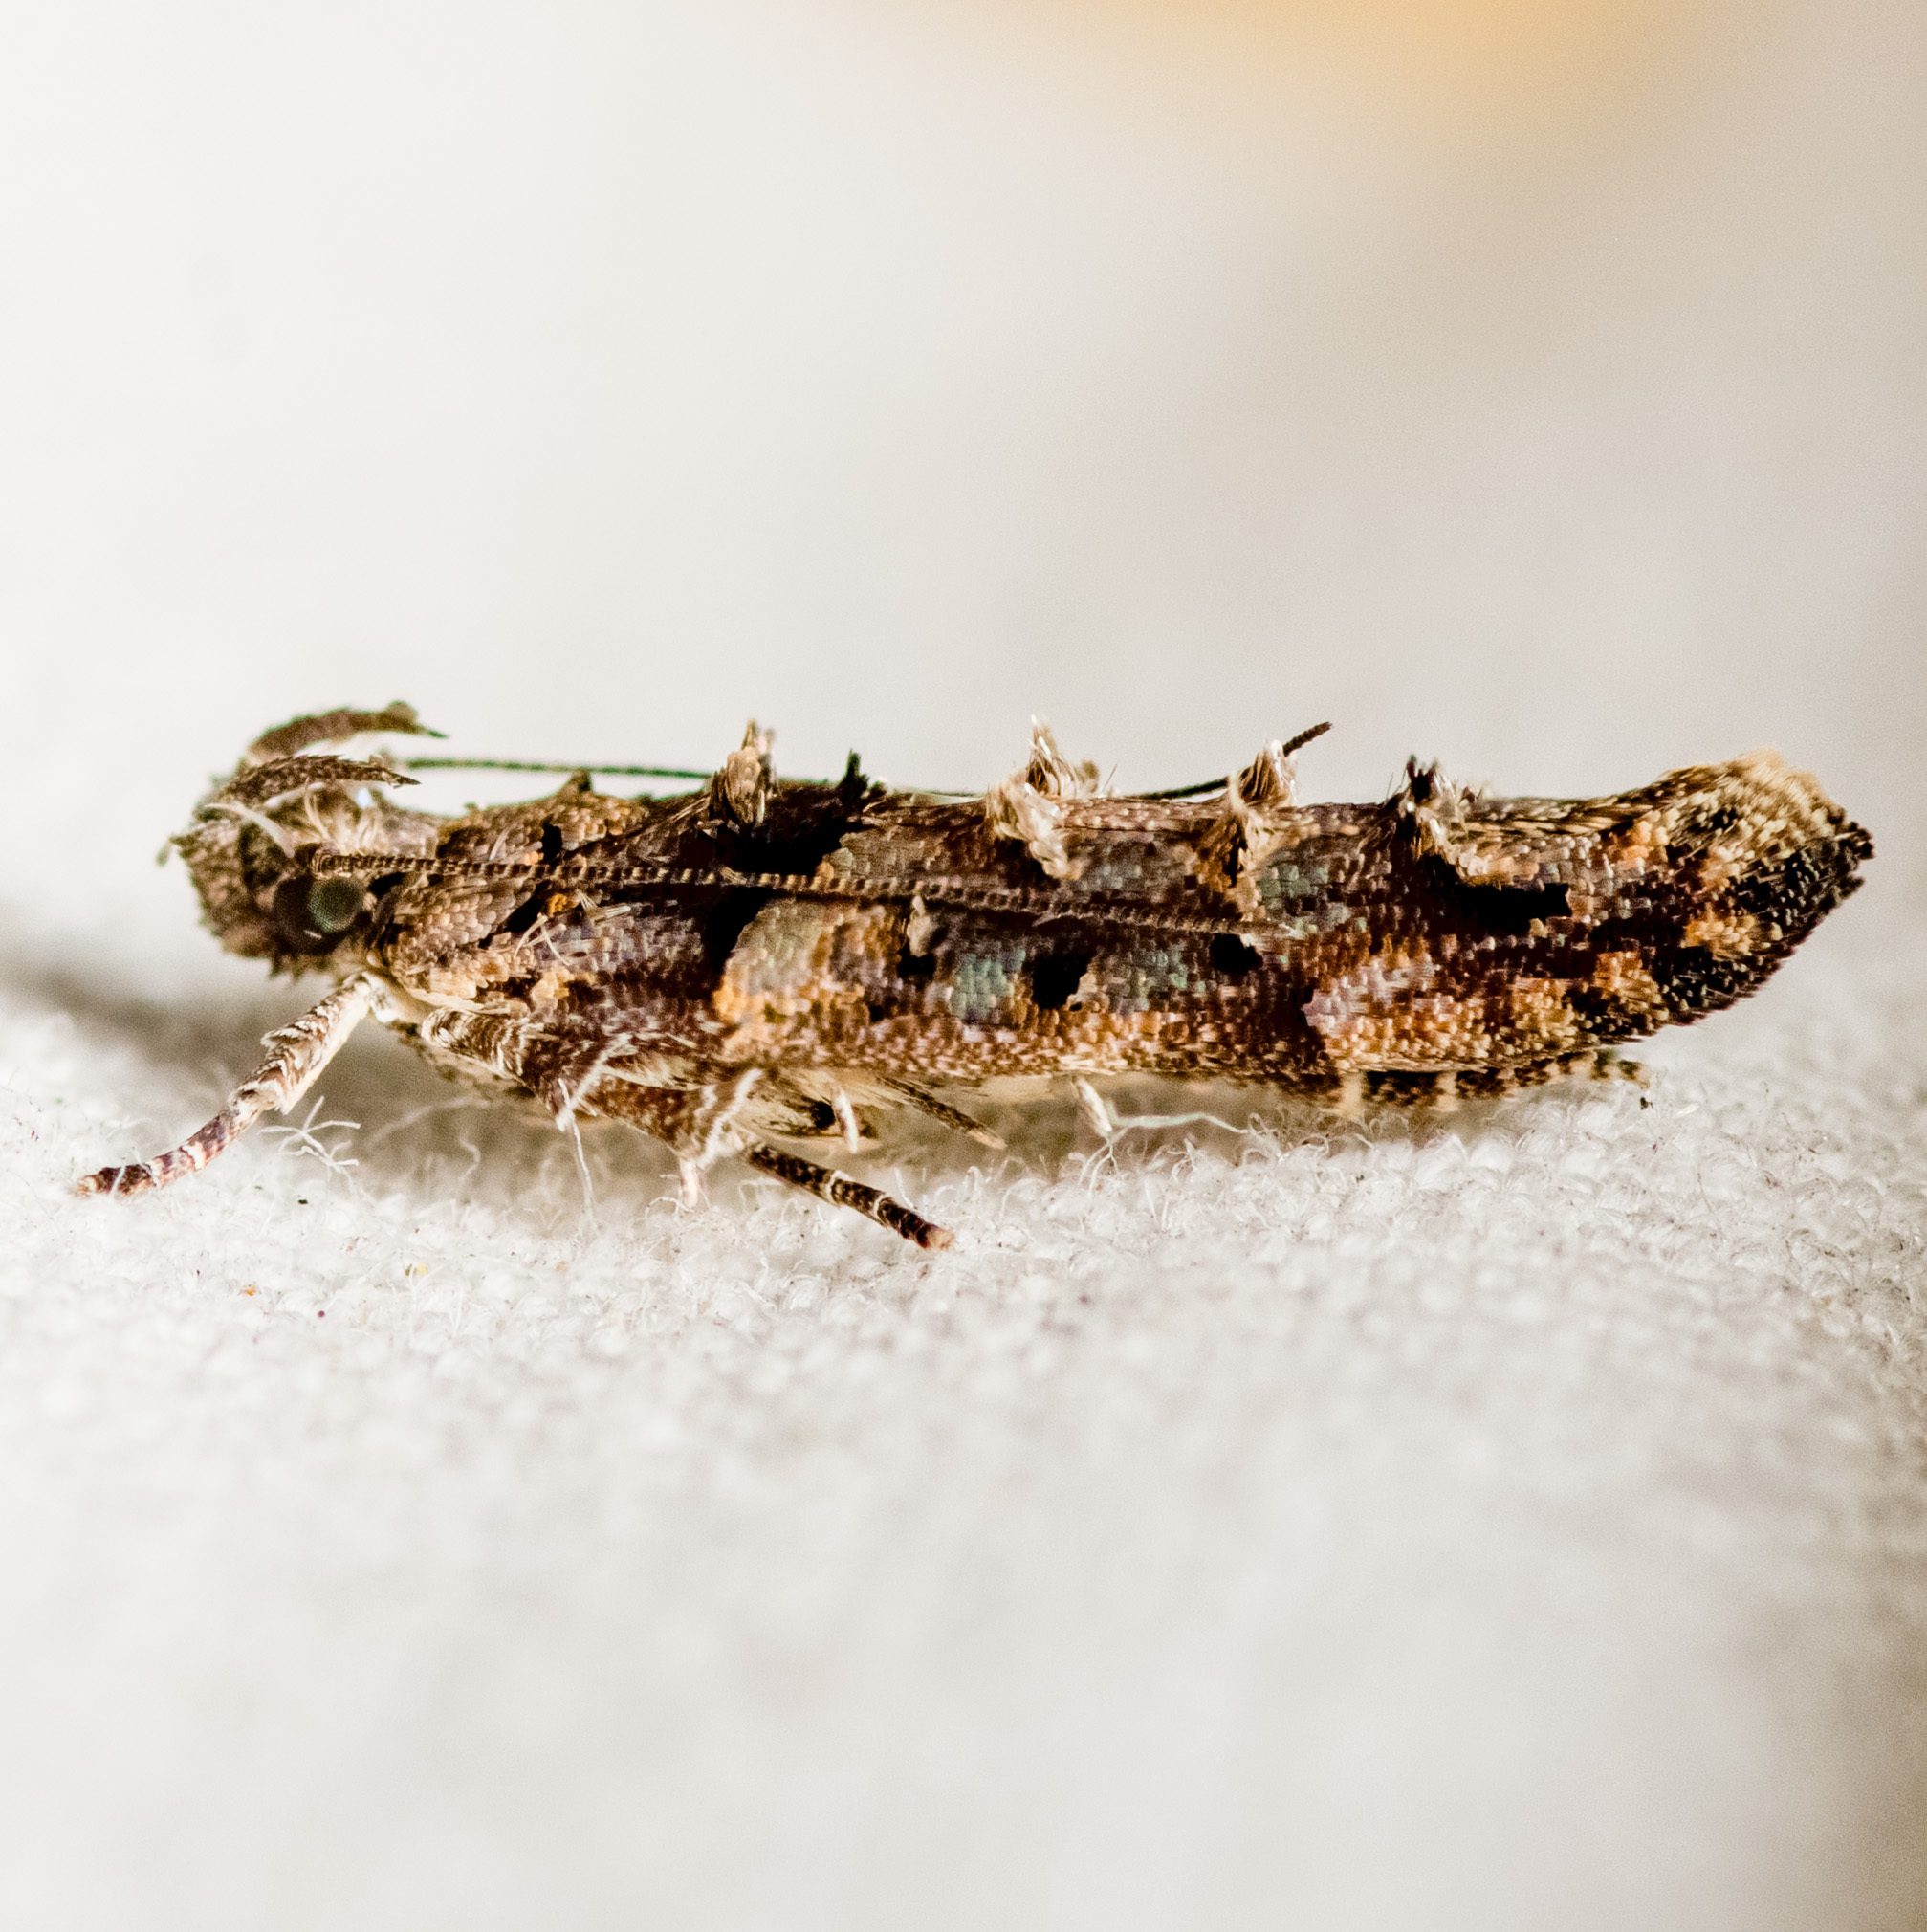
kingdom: Animalia
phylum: Arthropoda
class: Insecta
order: Lepidoptera
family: Gelechiidae
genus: Telphusa
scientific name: Telphusa perspicua
